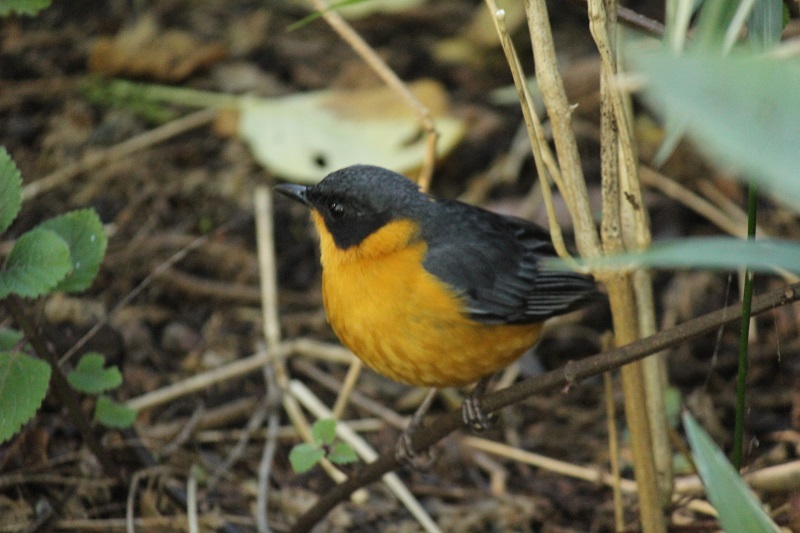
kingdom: Animalia
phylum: Chordata
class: Aves
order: Passeriformes
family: Muscicapidae
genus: Cossypha
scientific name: Cossypha dichroa
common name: Chorister robin-chat
